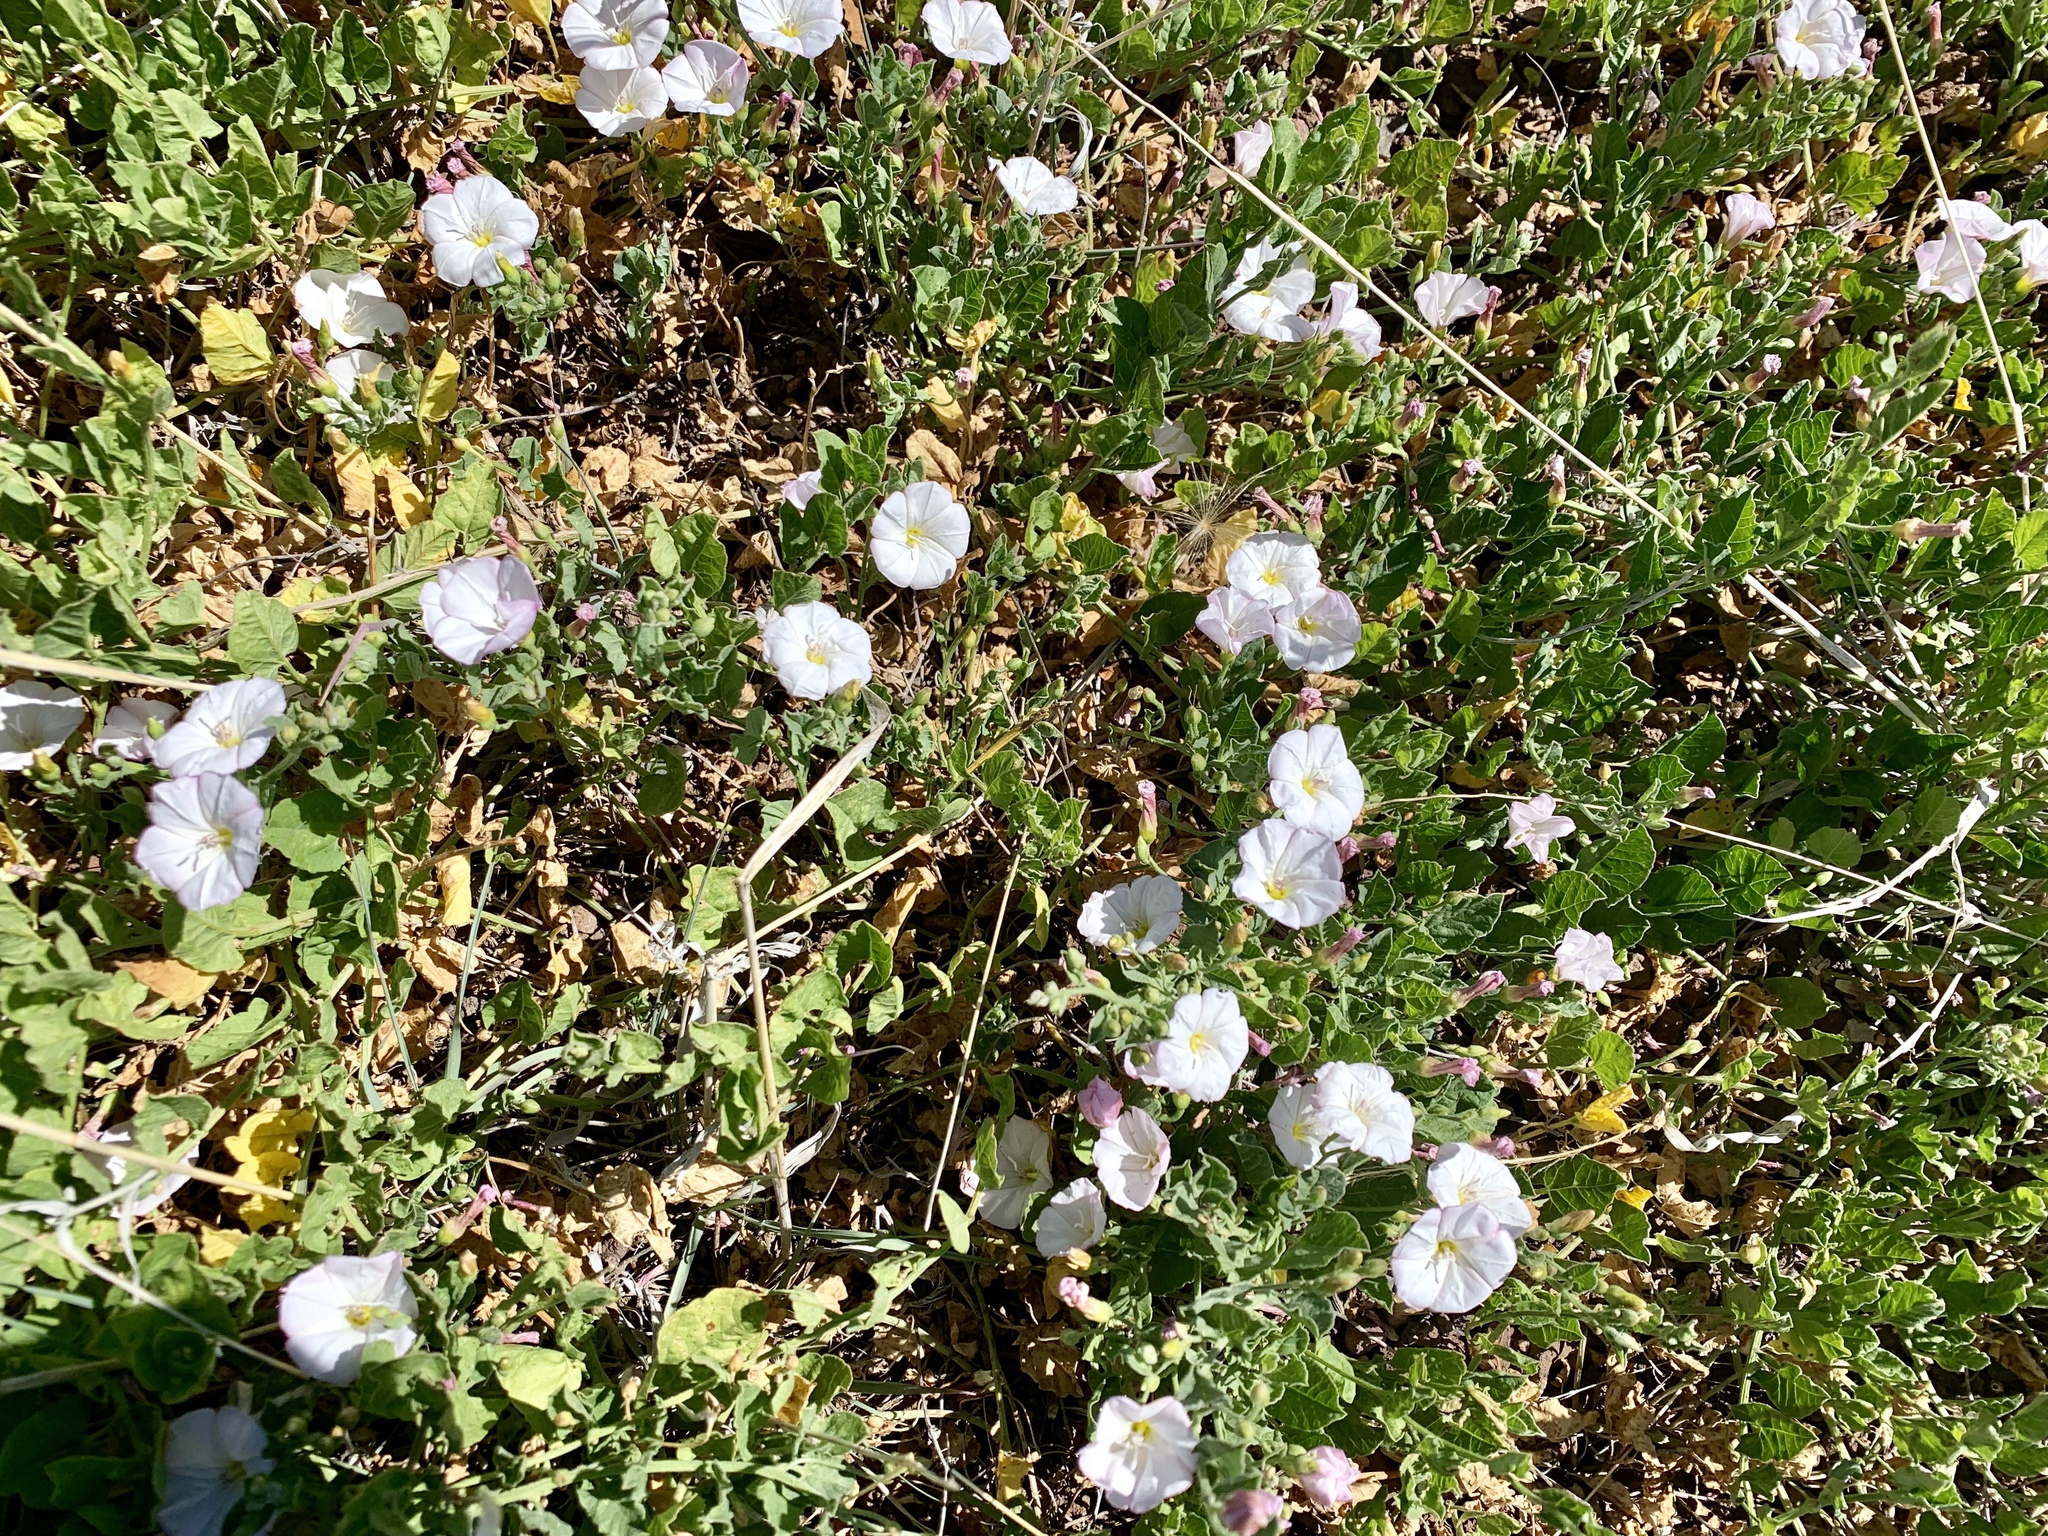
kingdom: Plantae
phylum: Tracheophyta
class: Magnoliopsida
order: Solanales
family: Convolvulaceae
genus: Convolvulus
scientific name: Convolvulus arvensis
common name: Field bindweed
